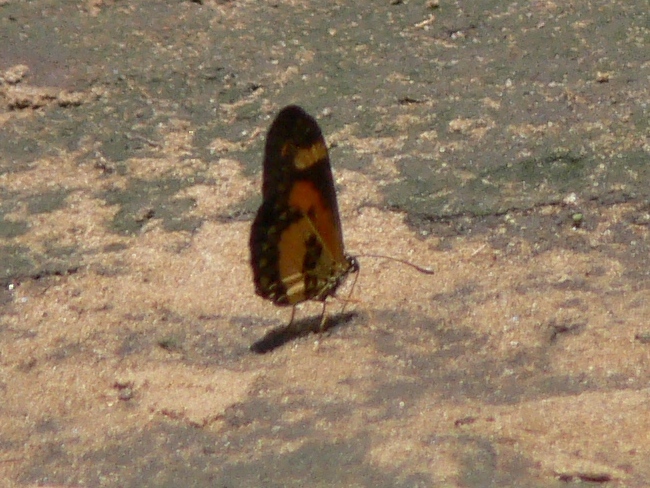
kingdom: Animalia
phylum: Arthropoda
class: Insecta
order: Lepidoptera
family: Nymphalidae
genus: Acraea
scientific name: Acraea Telchinia bonasia
